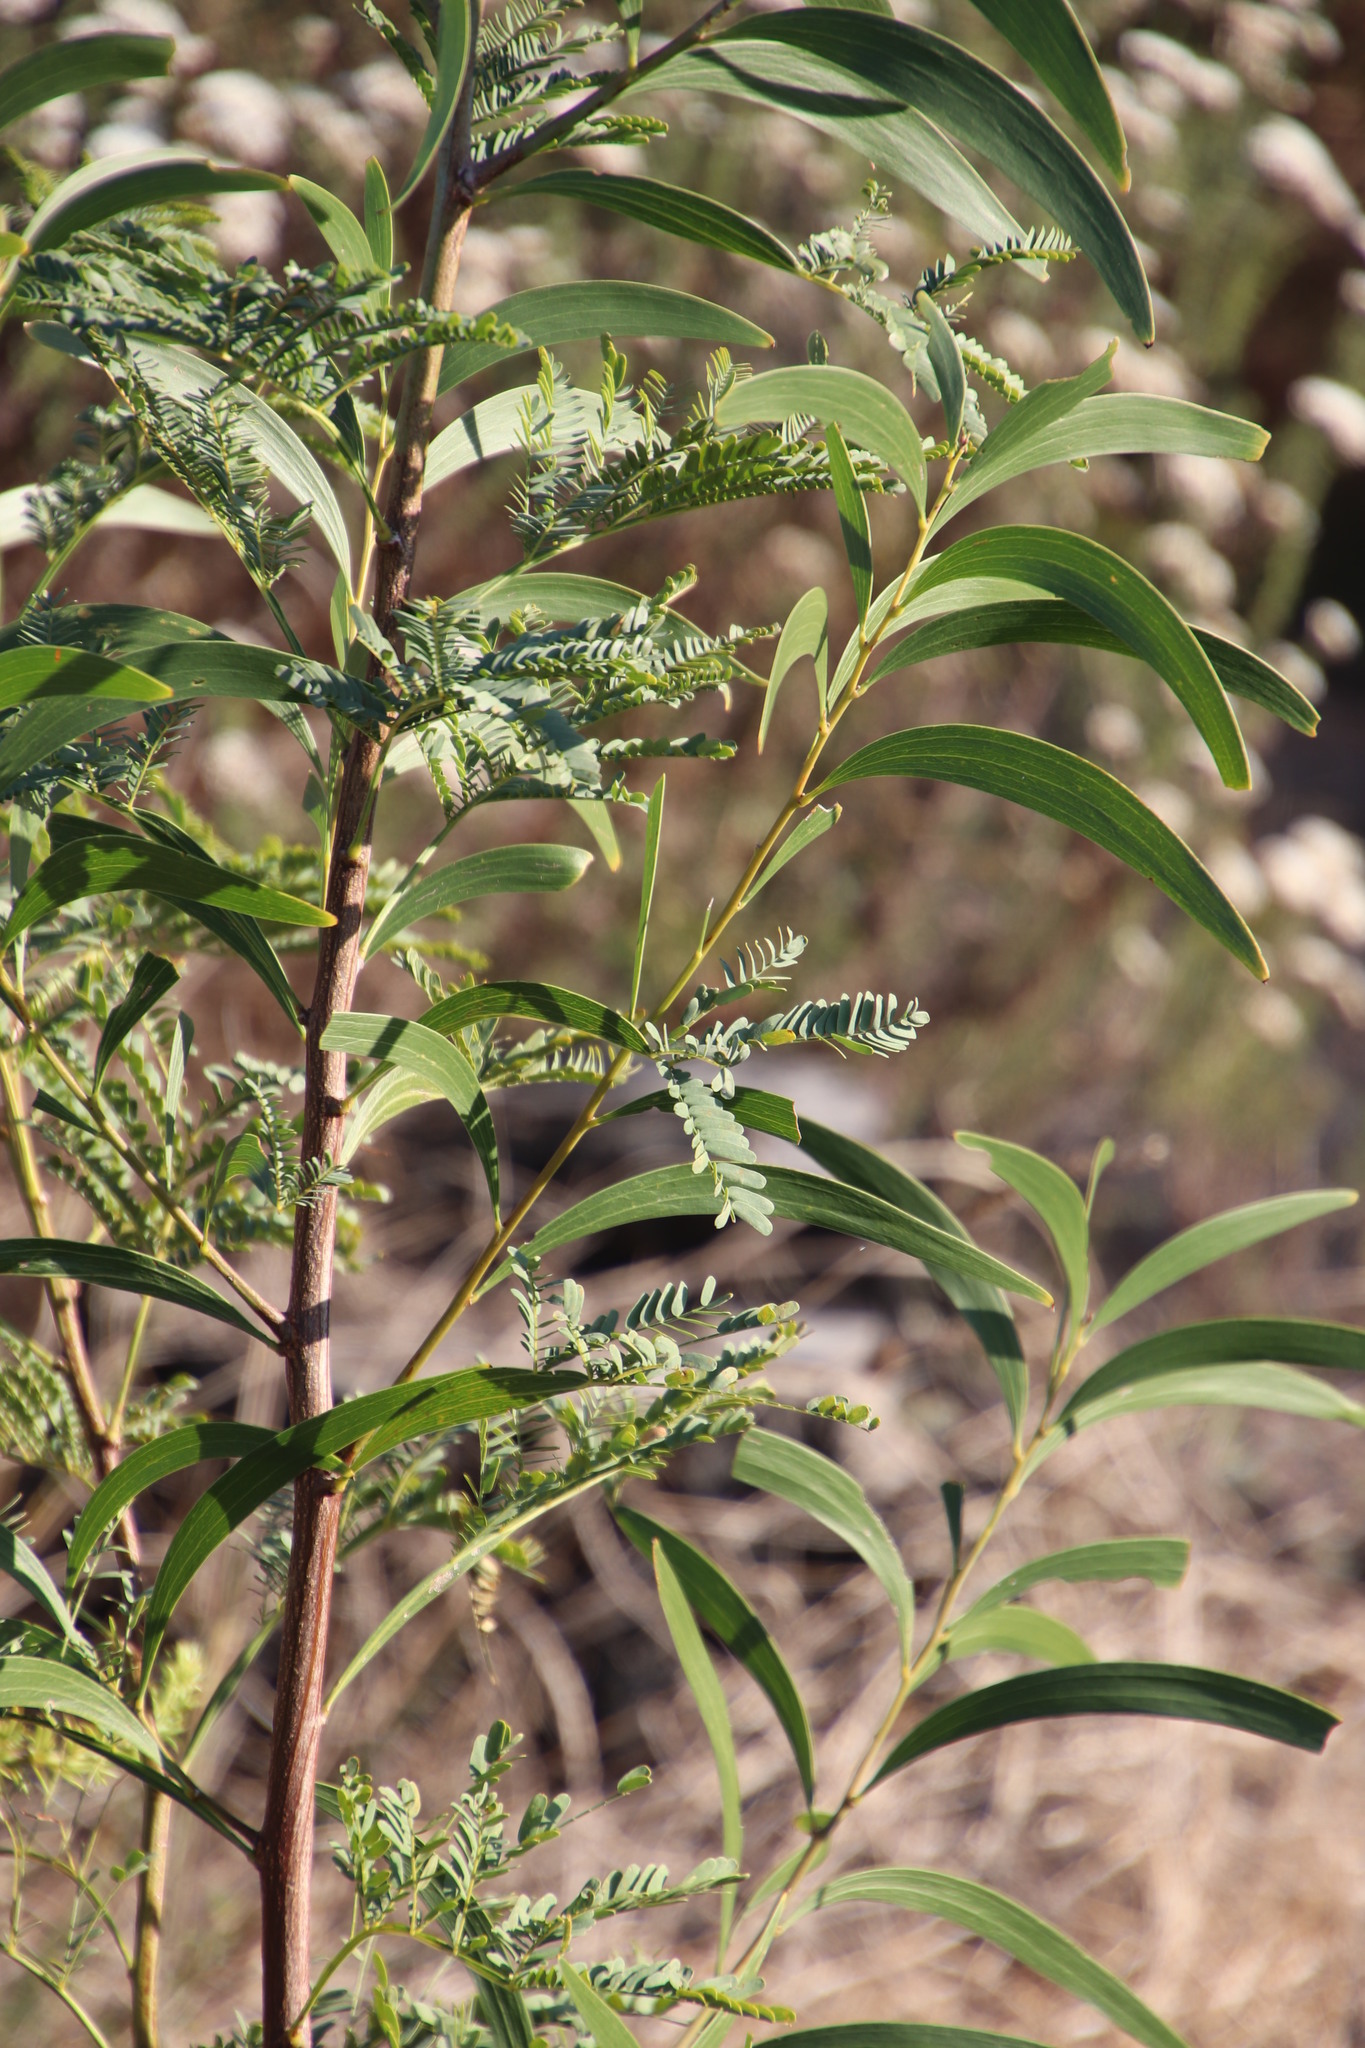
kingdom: Plantae
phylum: Tracheophyta
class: Magnoliopsida
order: Fabales
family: Fabaceae
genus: Acacia
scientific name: Acacia implexa
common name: Black wattle
